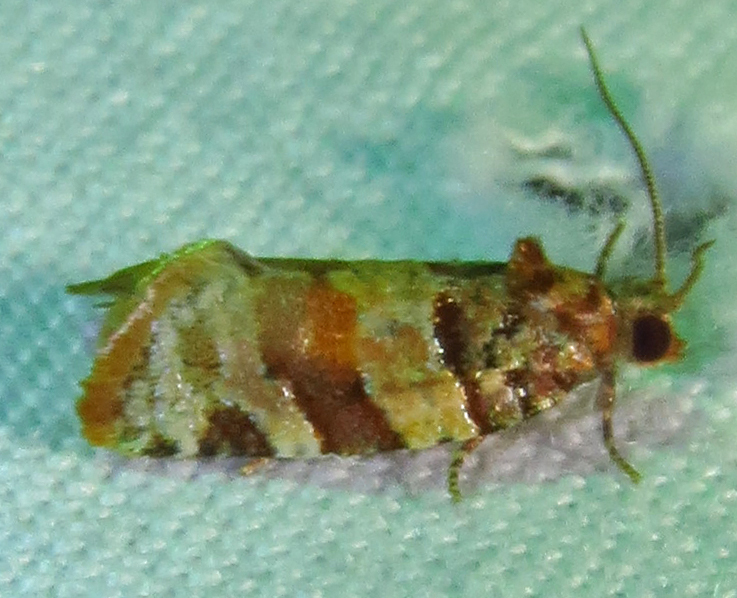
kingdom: Animalia
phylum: Arthropoda
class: Insecta
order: Lepidoptera
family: Tortricidae
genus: Argyrotaenia
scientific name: Argyrotaenia kimballi
